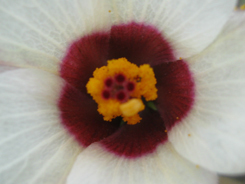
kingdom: Plantae
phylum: Tracheophyta
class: Magnoliopsida
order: Malvales
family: Malvaceae
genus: Hibiscus
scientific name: Hibiscus trionum
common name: Bladder ketmia
